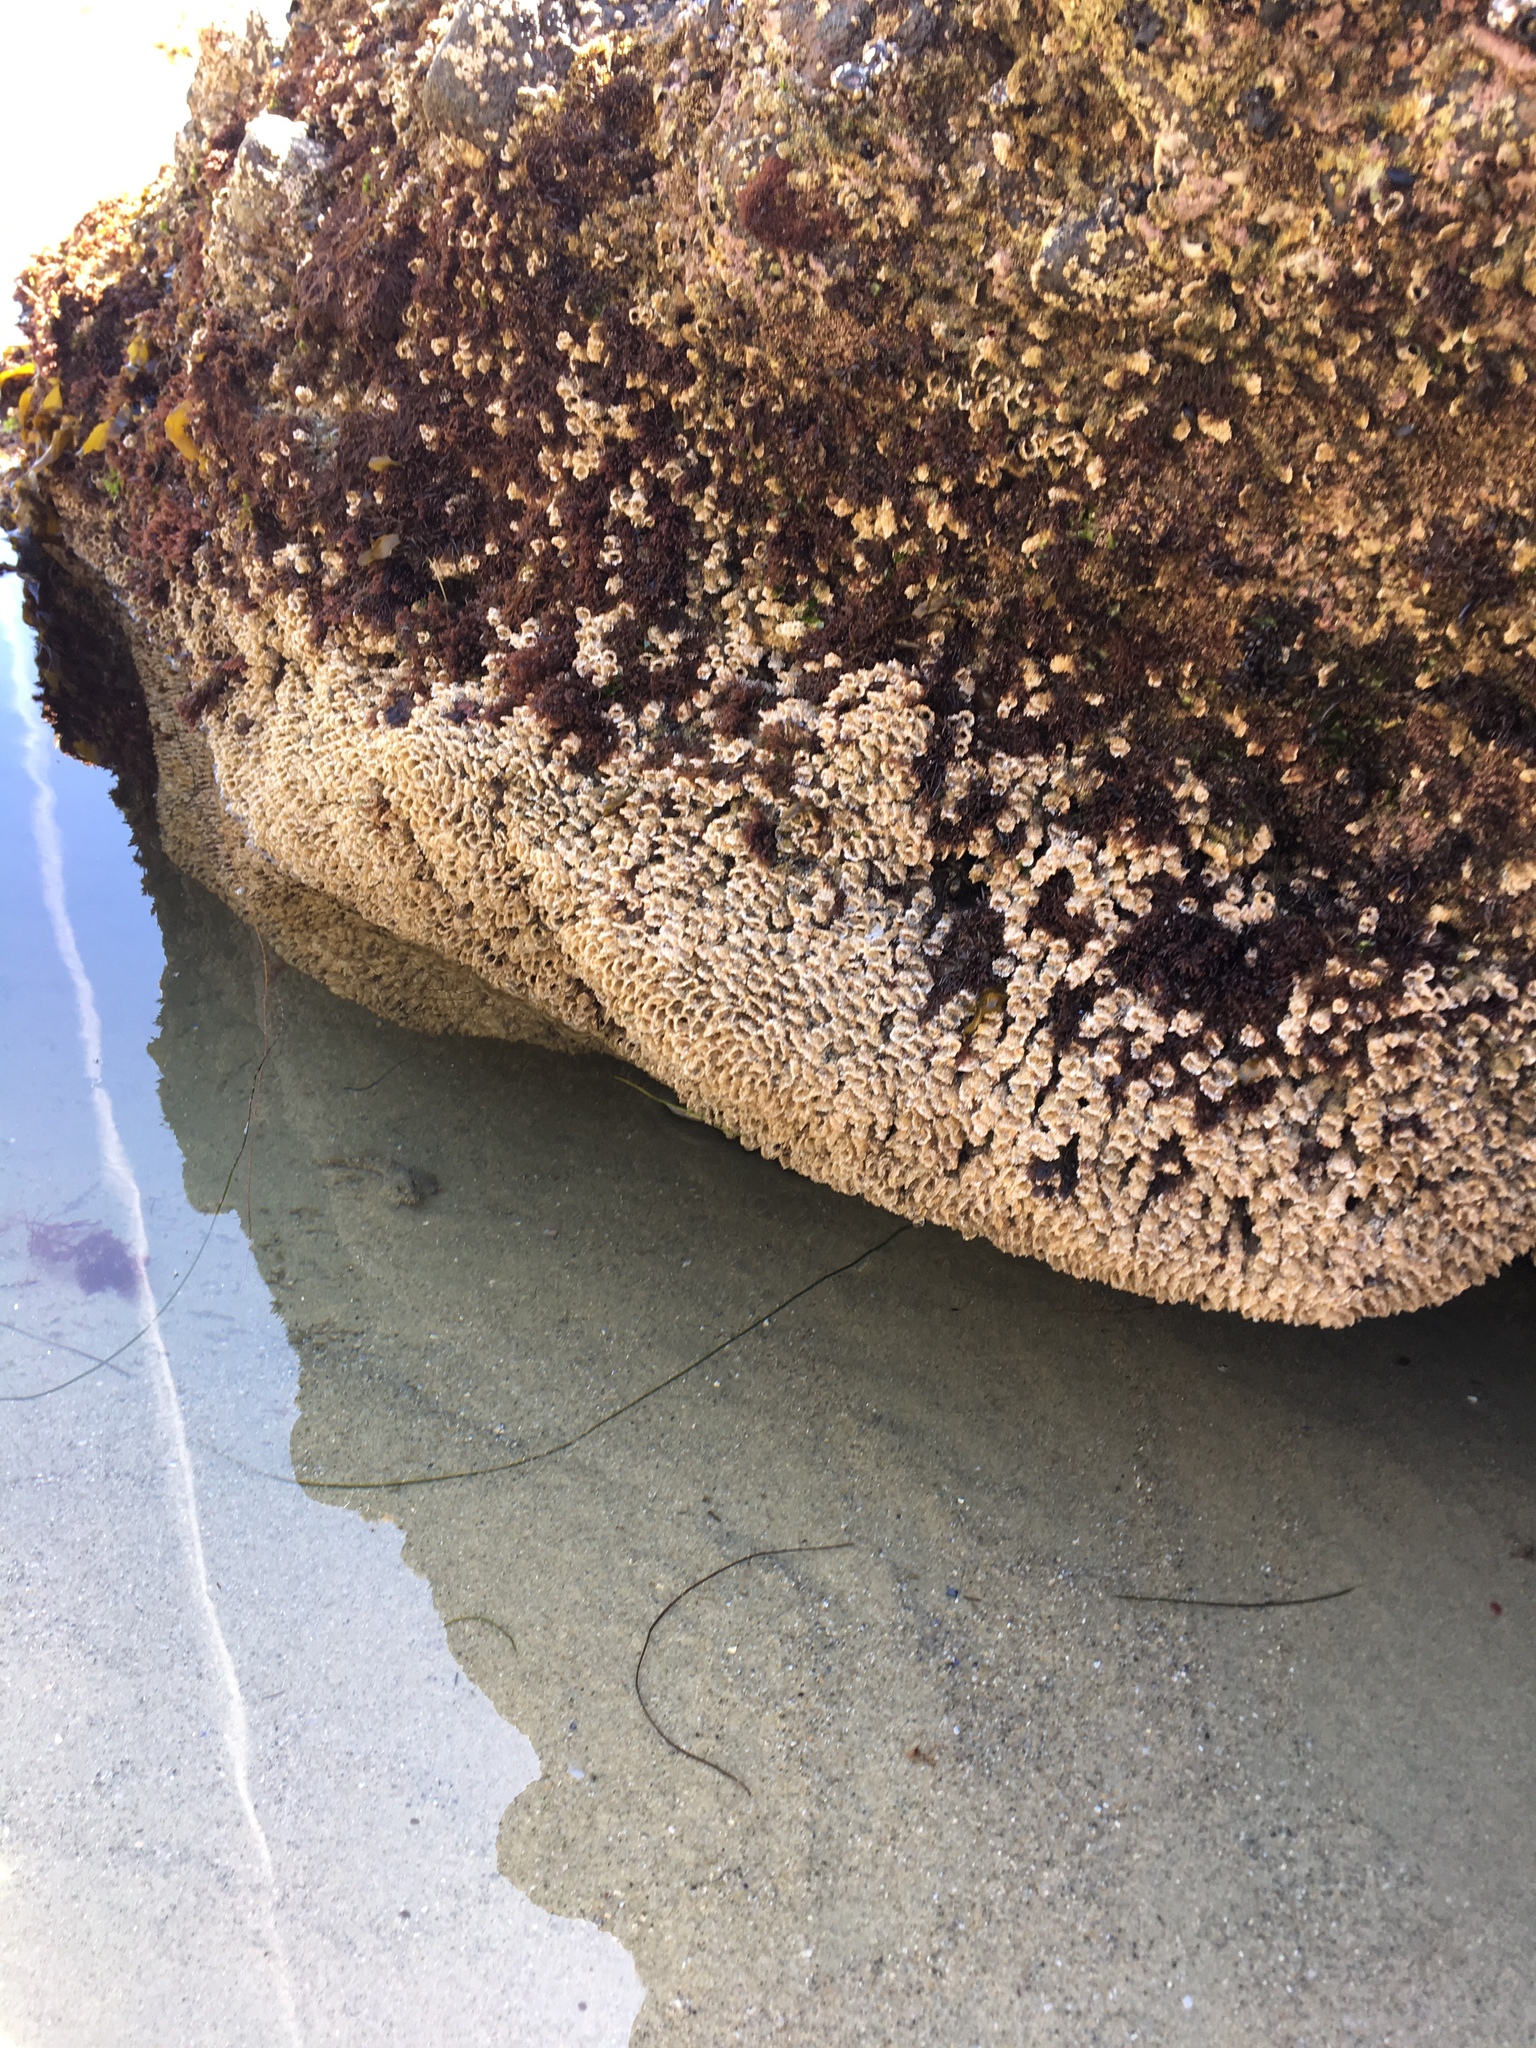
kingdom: Animalia
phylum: Annelida
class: Polychaeta
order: Sabellida
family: Sabellariidae
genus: Phragmatopoma
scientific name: Phragmatopoma californica
